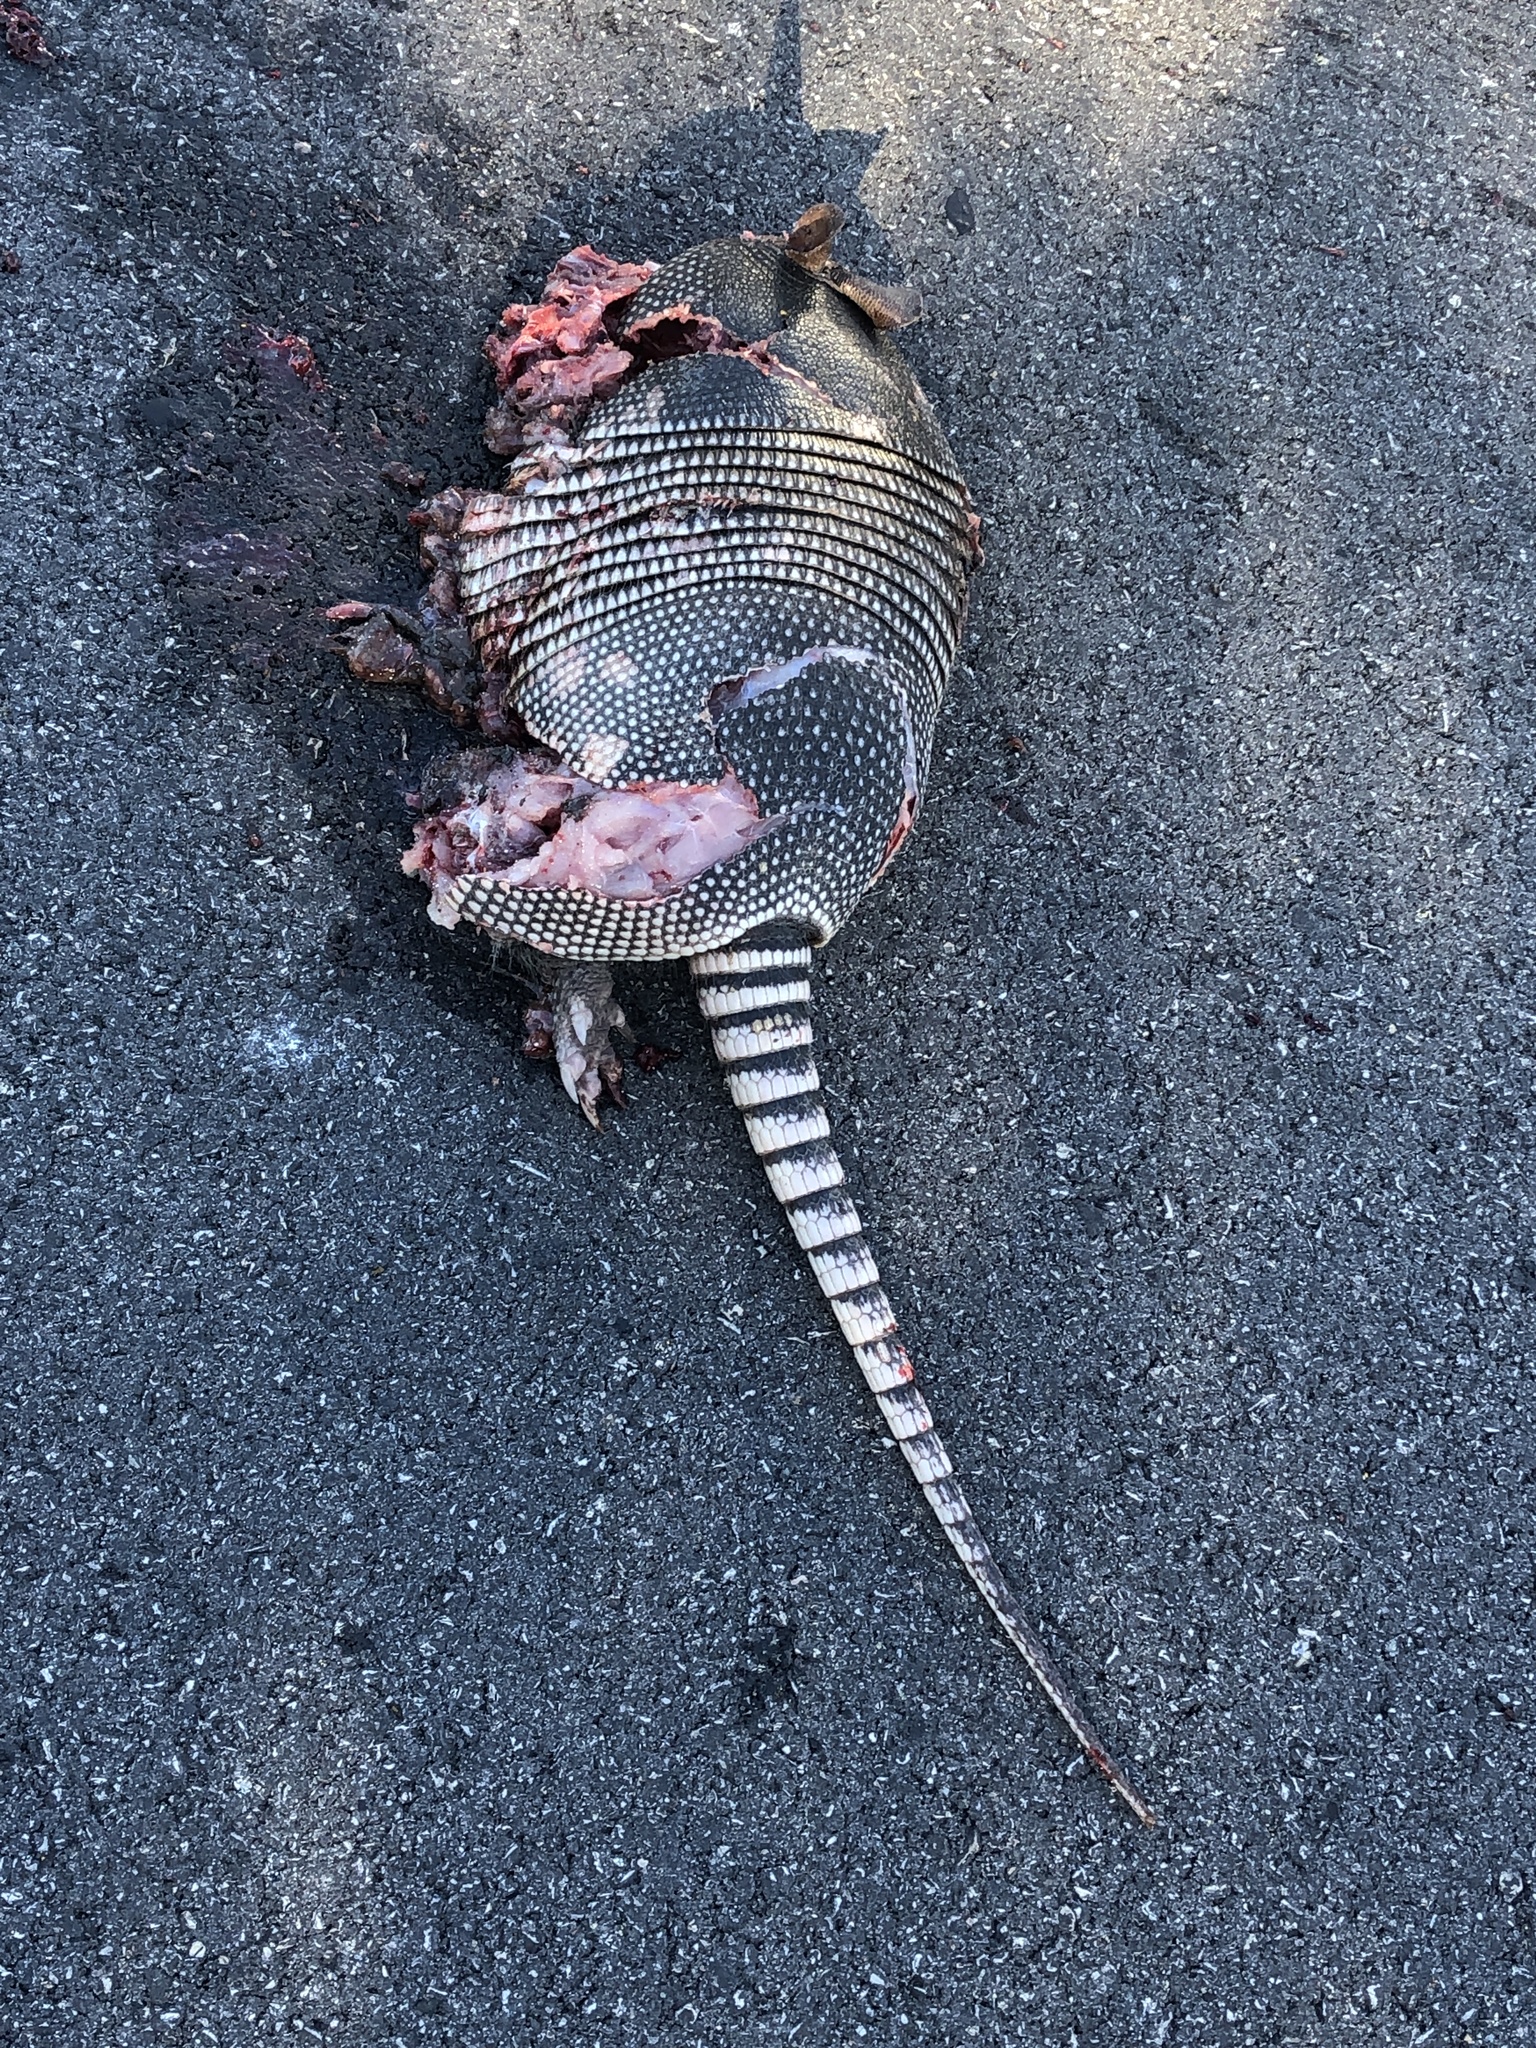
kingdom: Animalia
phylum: Chordata
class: Mammalia
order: Cingulata
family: Dasypodidae
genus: Dasypus
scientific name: Dasypus novemcinctus
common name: Nine-banded armadillo
